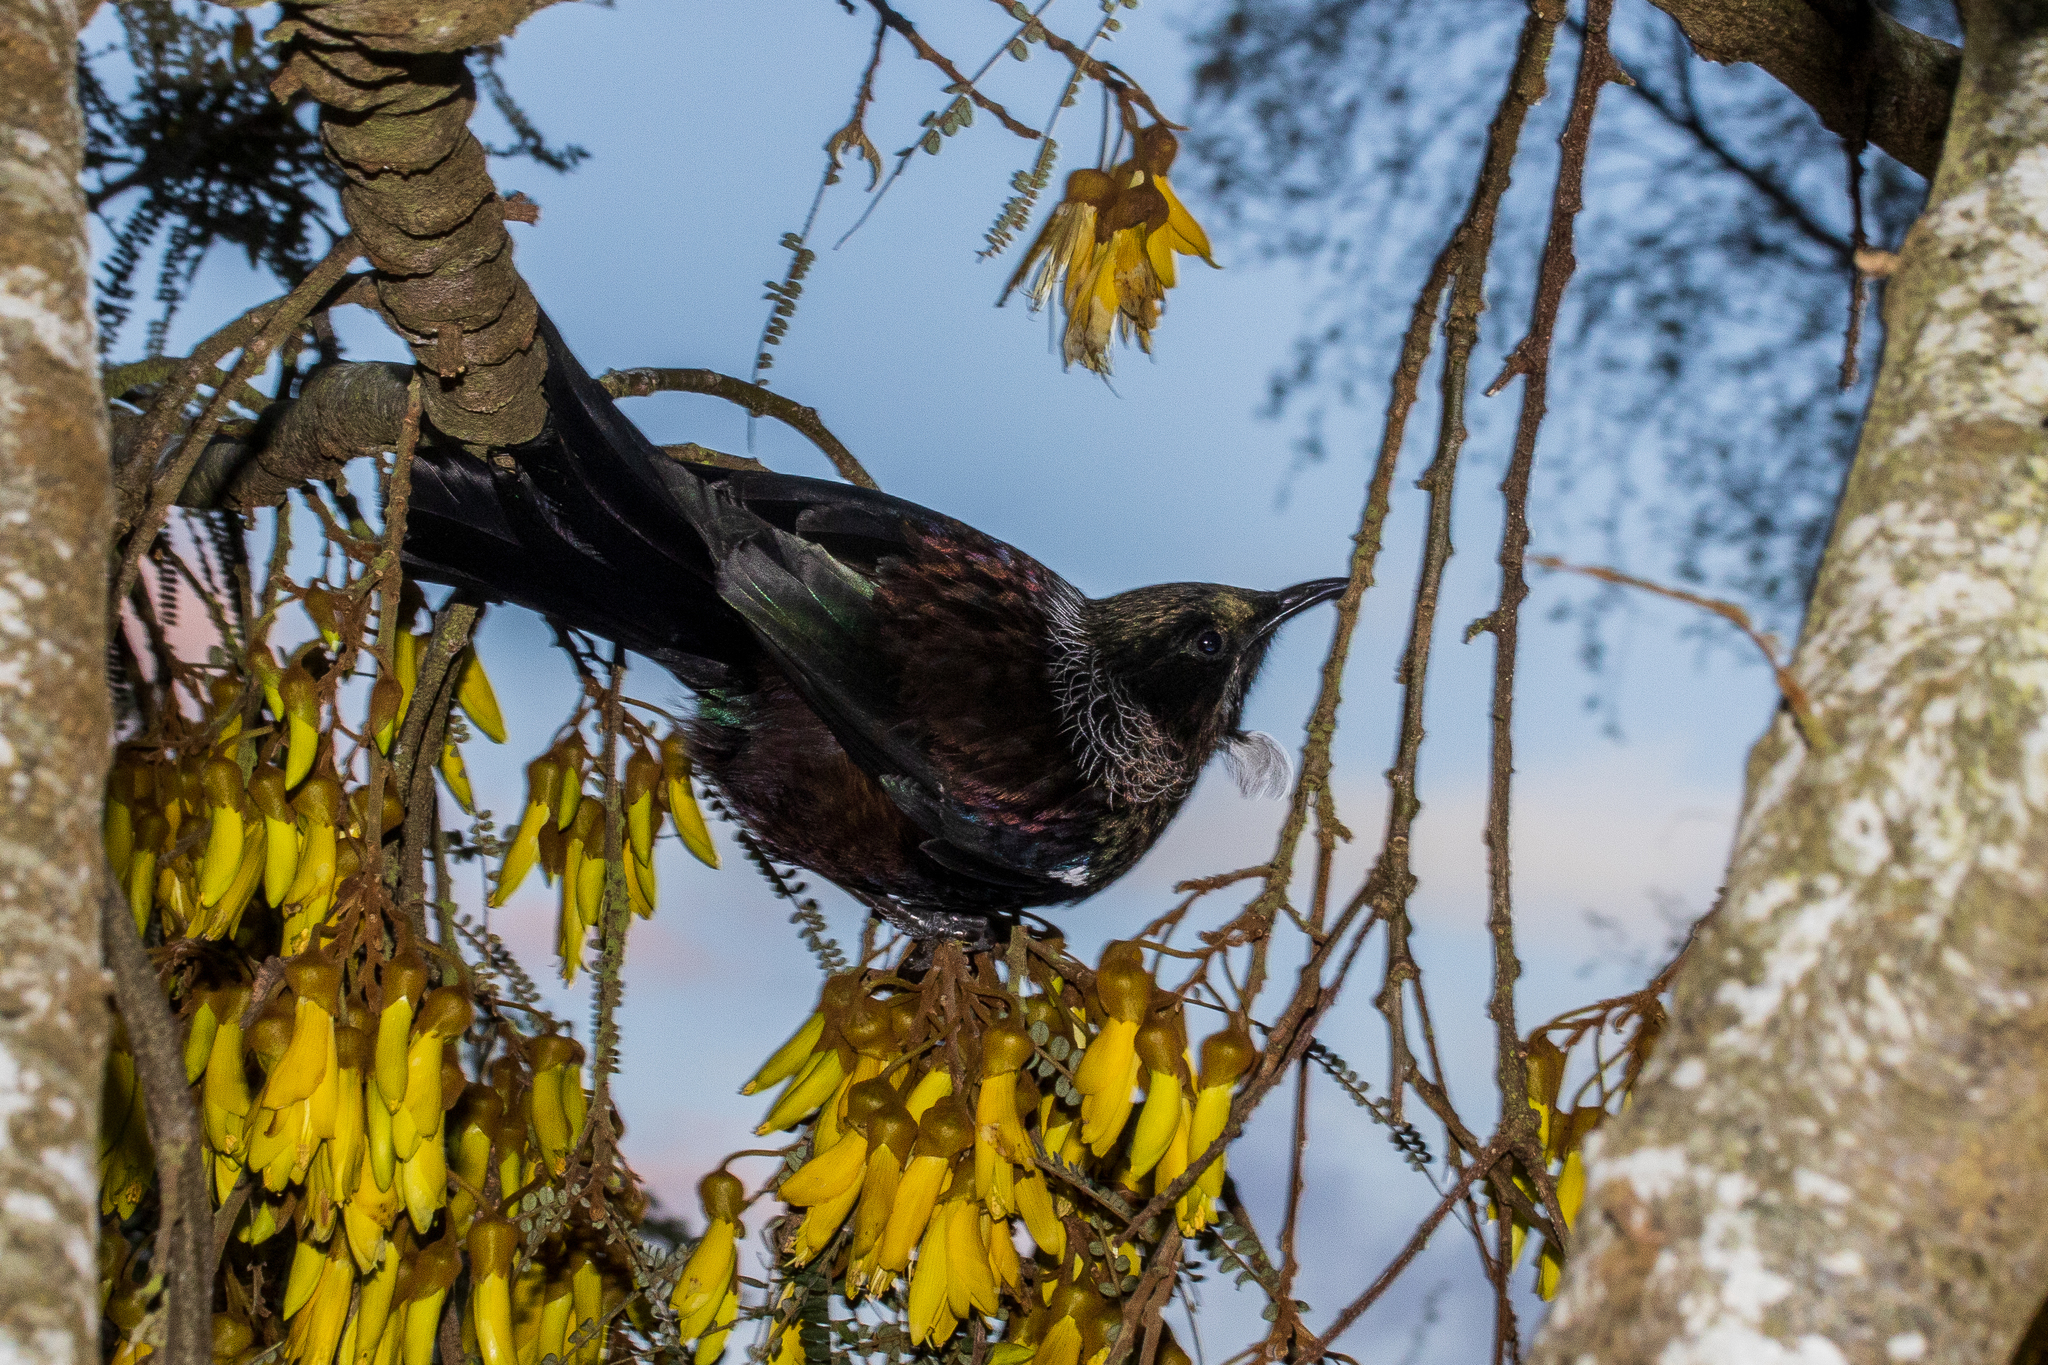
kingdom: Animalia
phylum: Chordata
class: Aves
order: Passeriformes
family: Meliphagidae
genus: Prosthemadera
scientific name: Prosthemadera novaeseelandiae
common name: Tui
